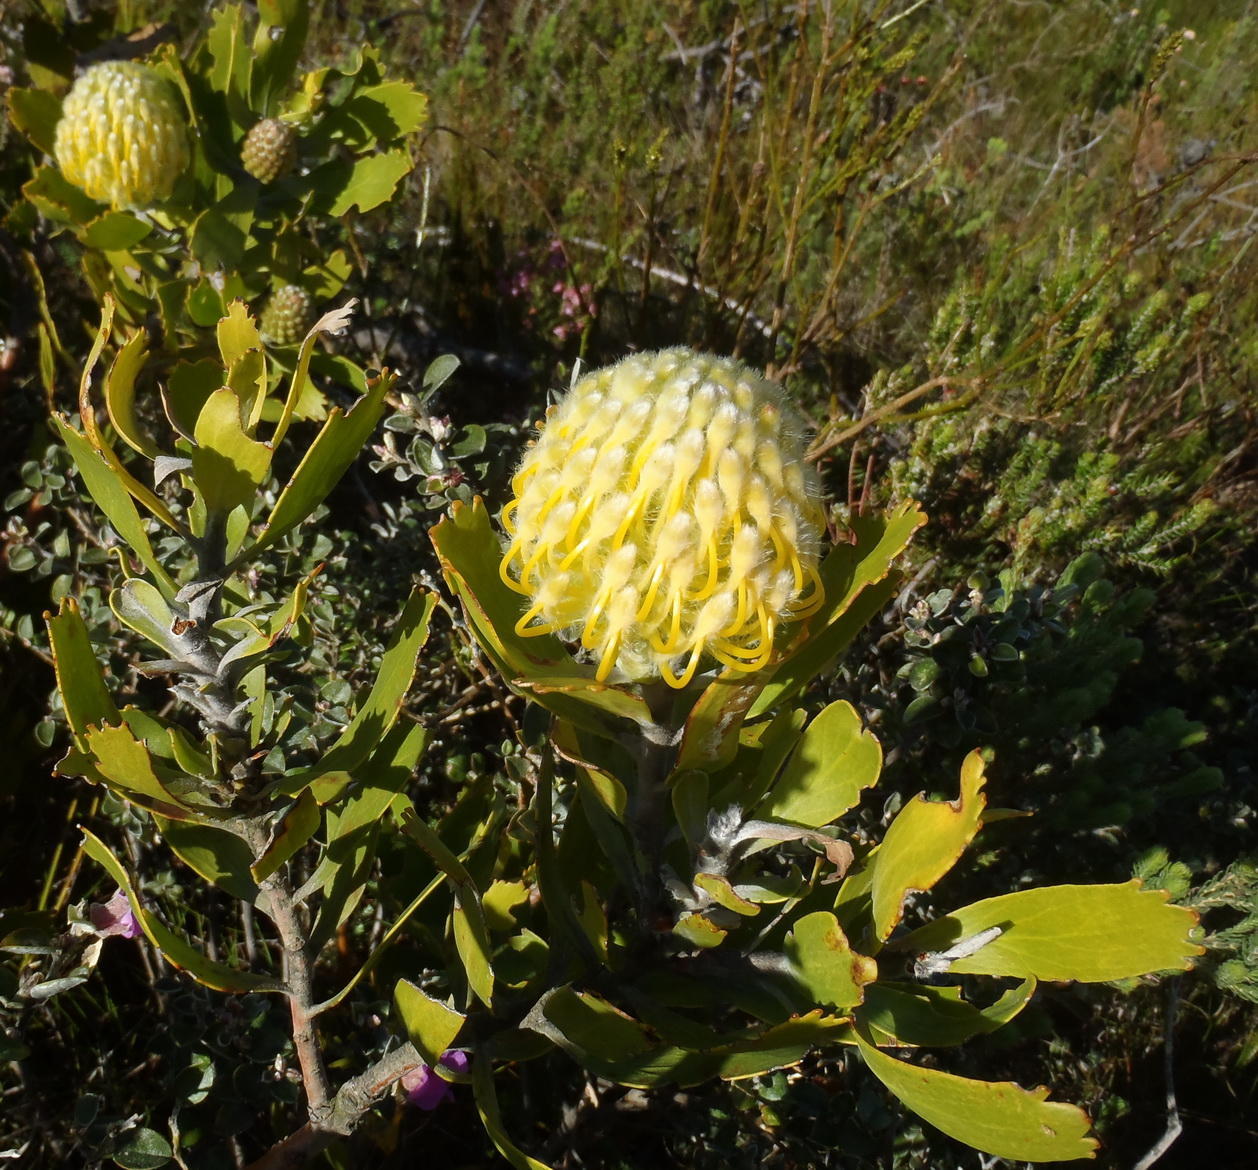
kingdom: Plantae
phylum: Tracheophyta
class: Magnoliopsida
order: Proteales
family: Proteaceae
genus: Leucospermum
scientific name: Leucospermum cuneiforme
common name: Common pincushion
